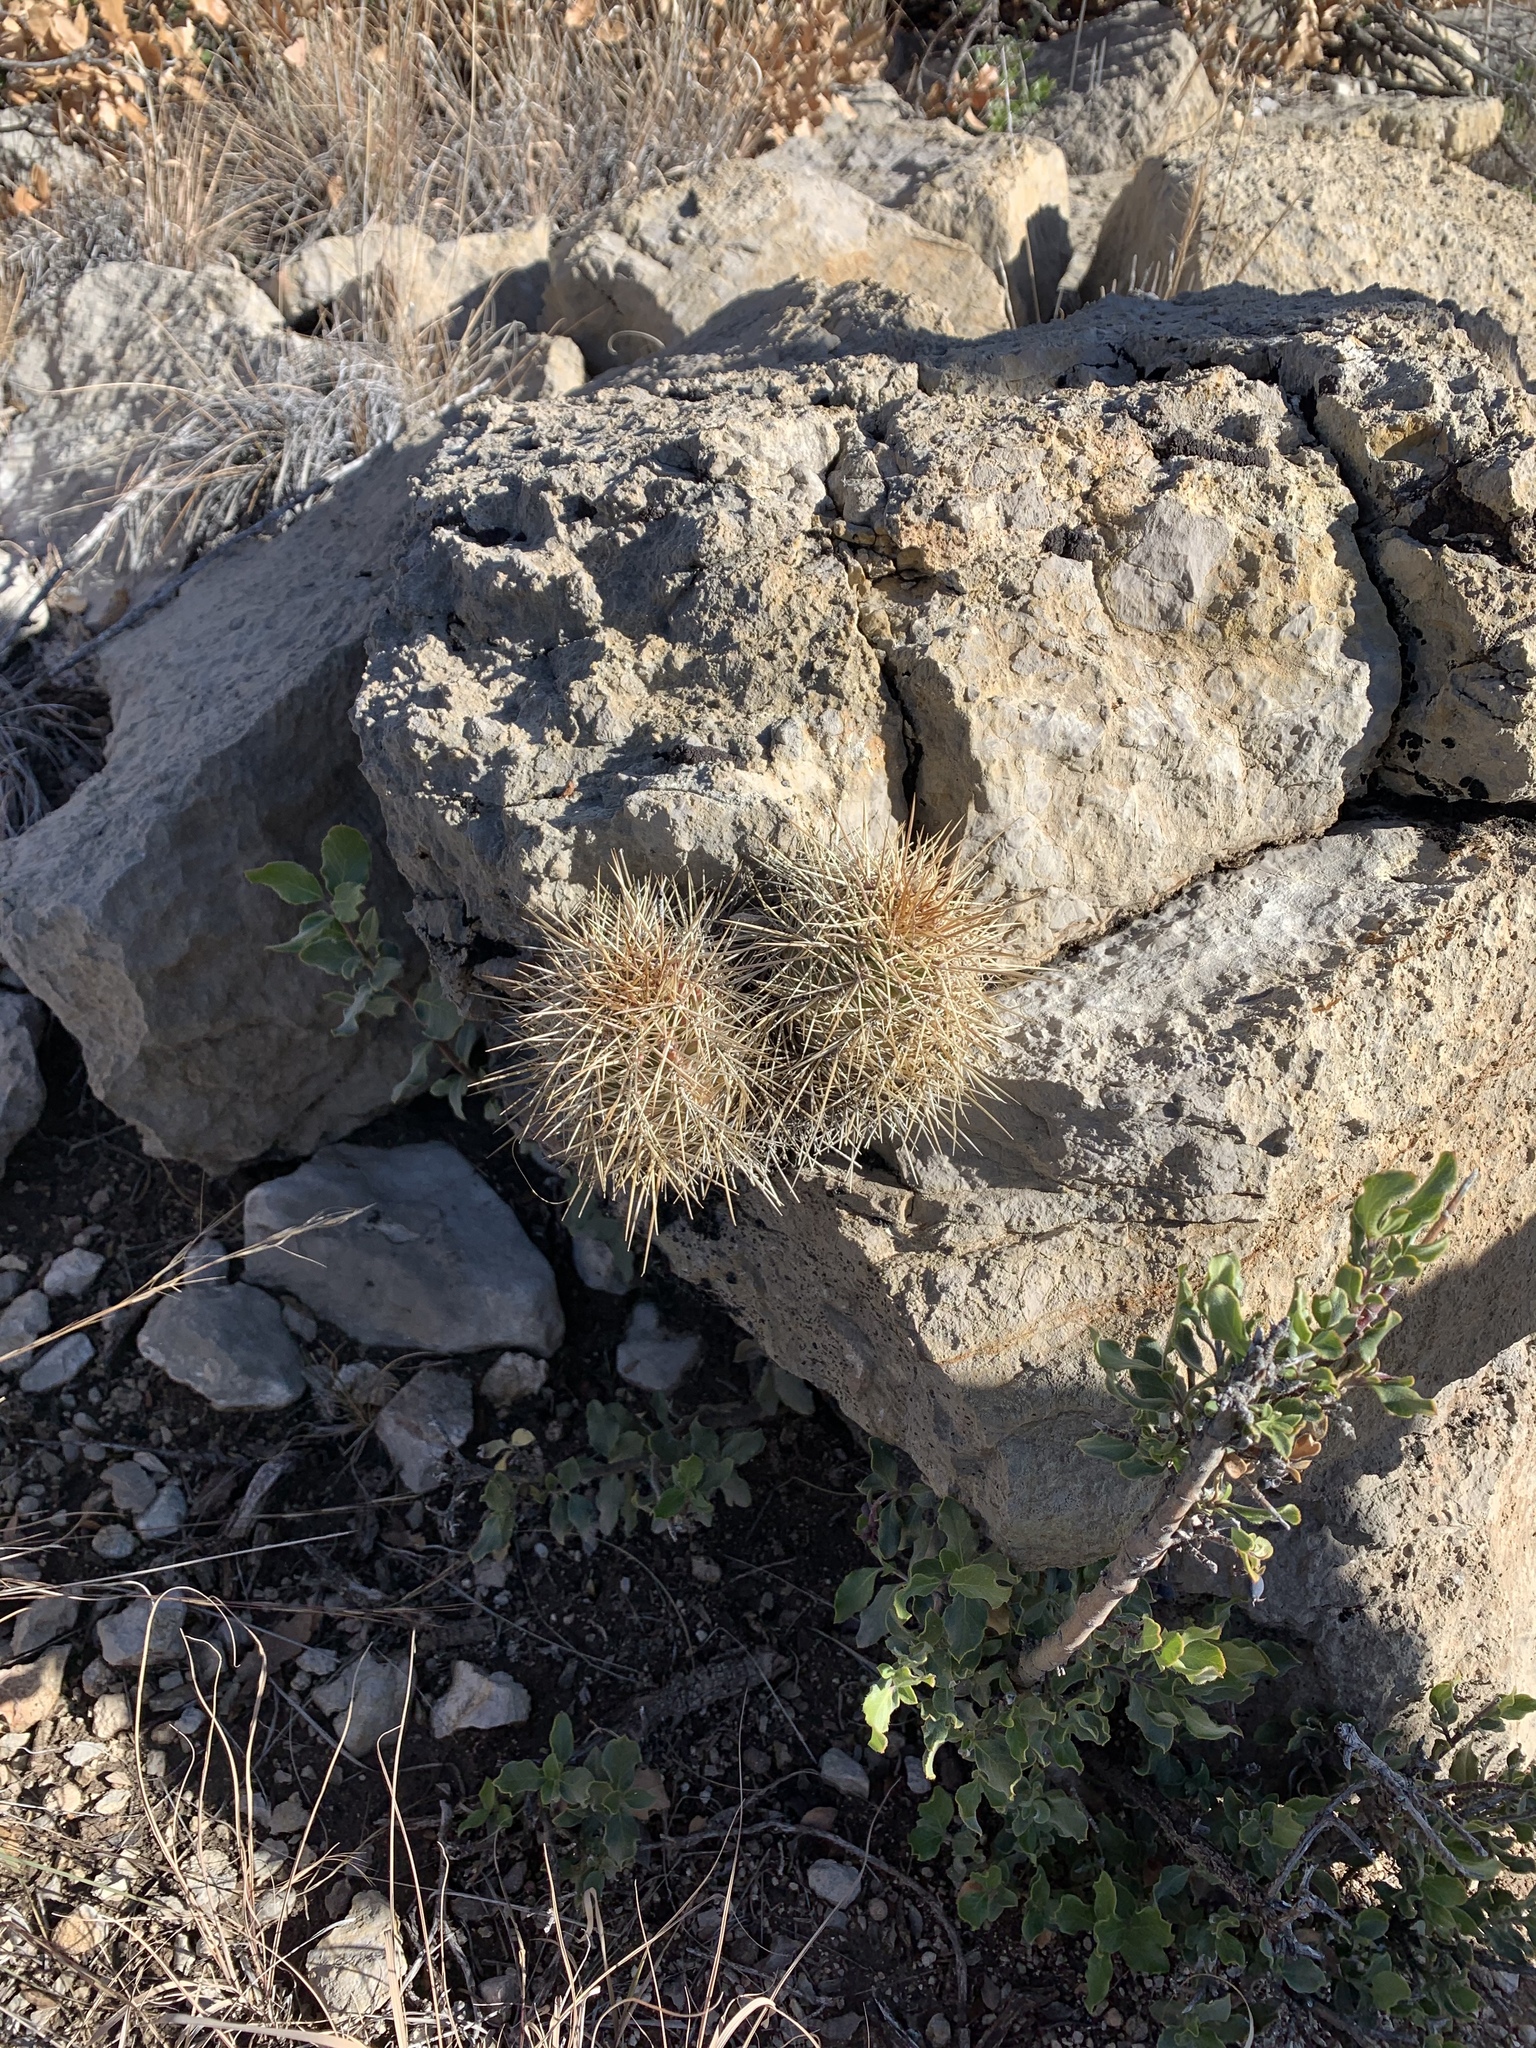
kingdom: Plantae
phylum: Tracheophyta
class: Magnoliopsida
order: Caryophyllales
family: Cactaceae
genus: Echinocereus
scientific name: Echinocereus coccineus
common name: Scarlet hedgehog cactus
